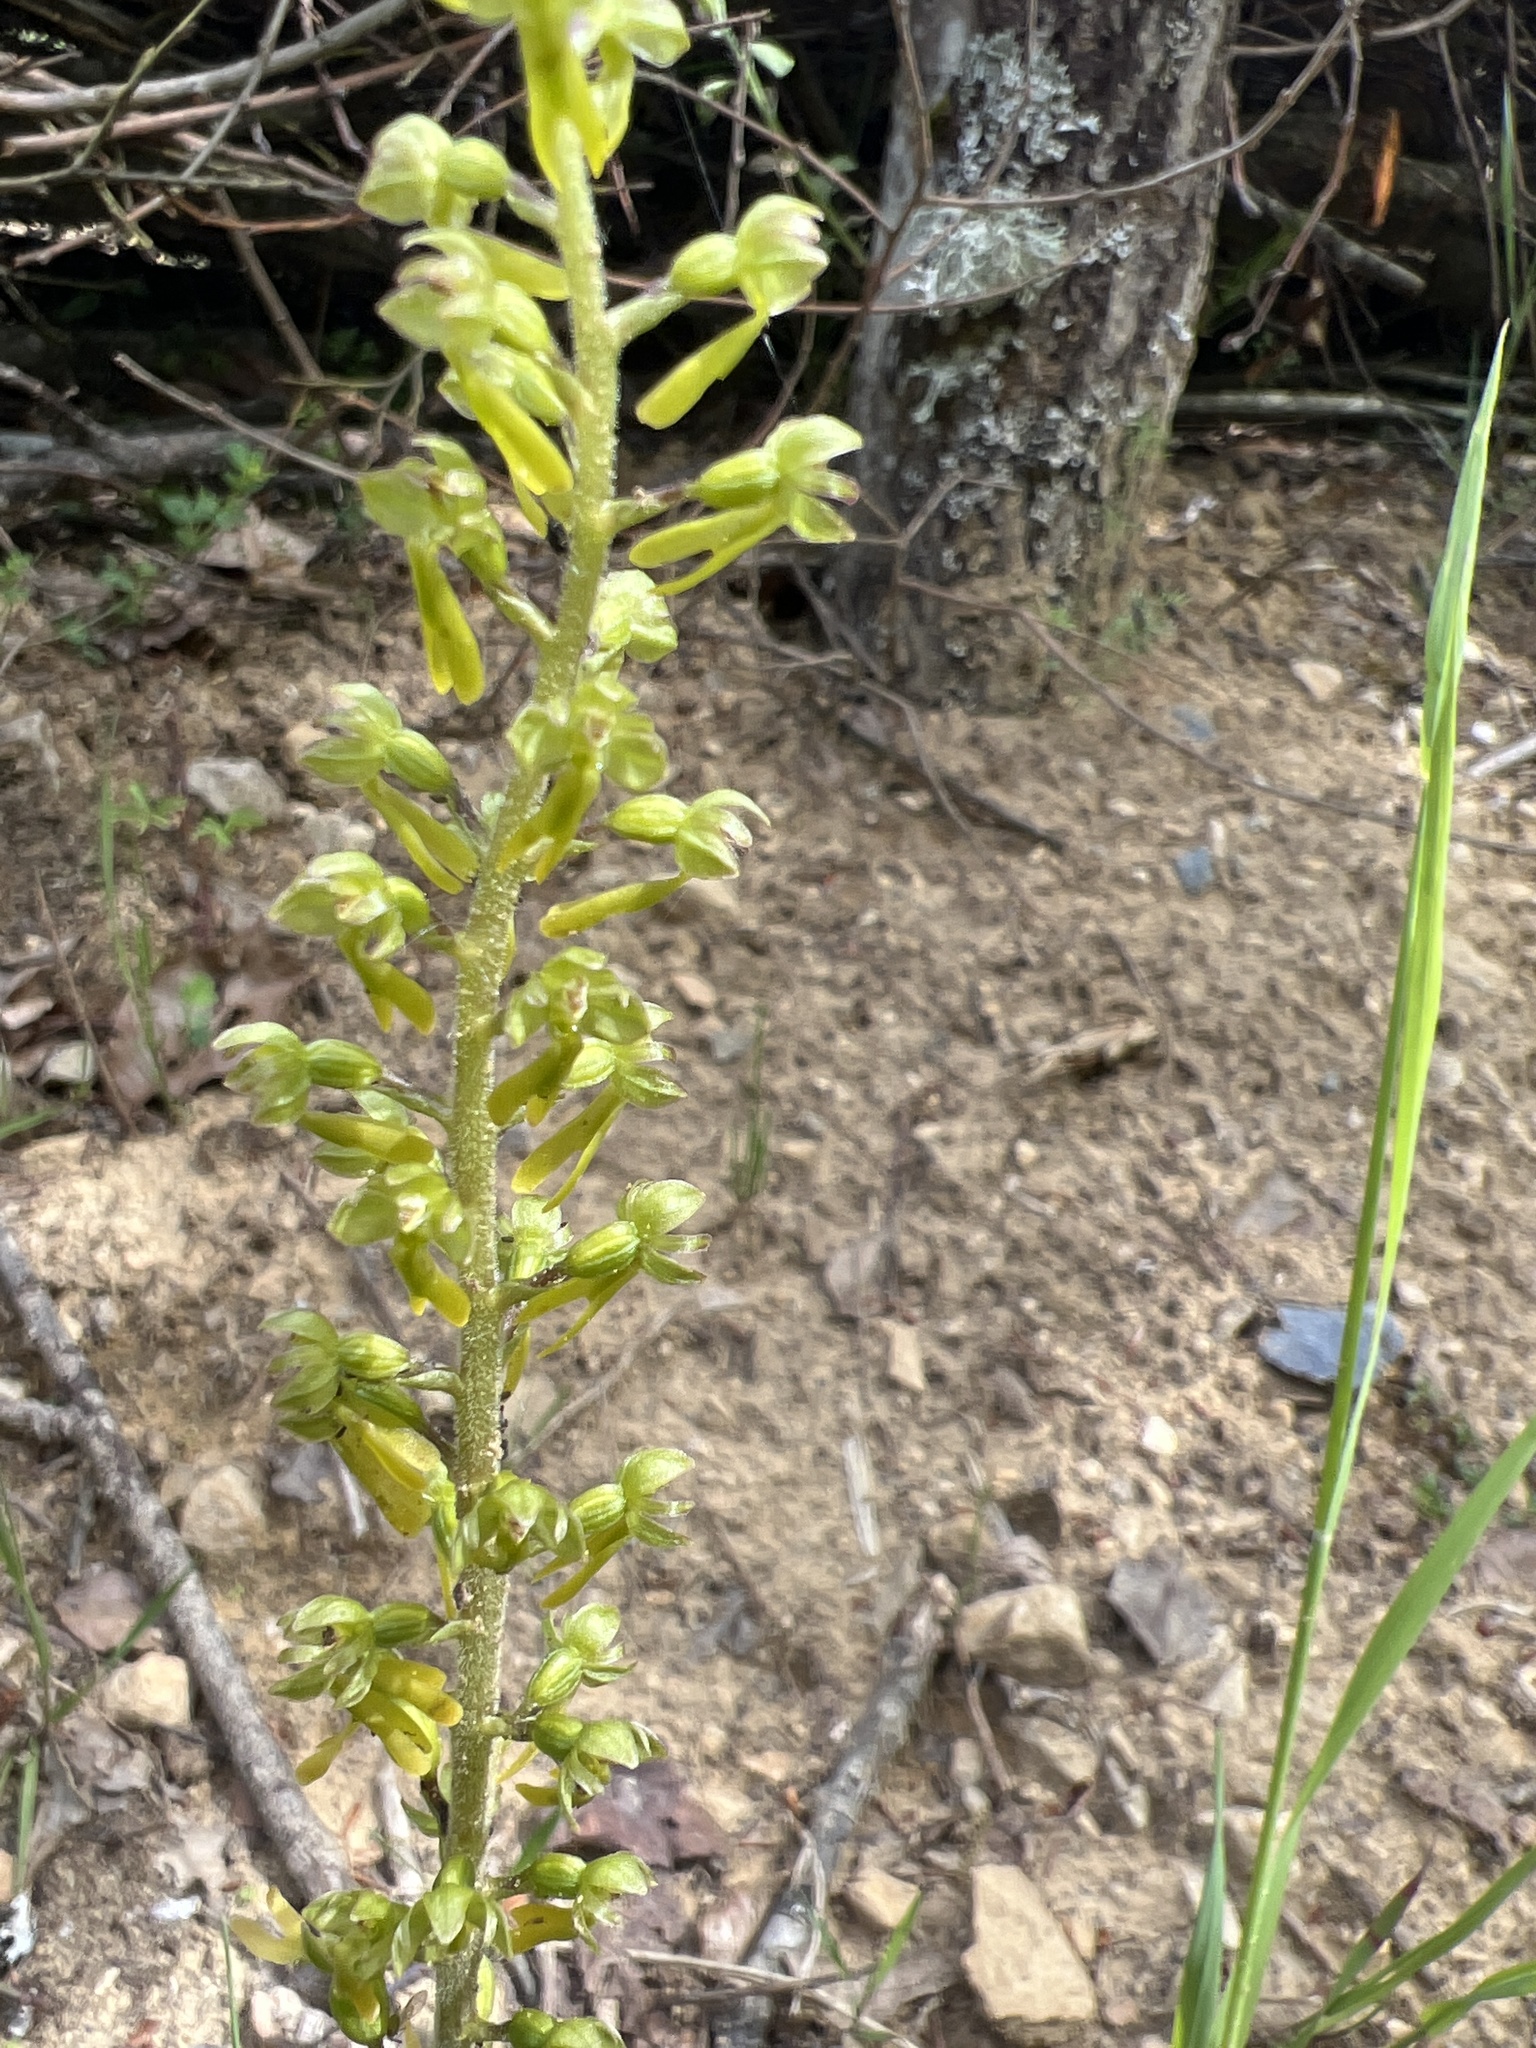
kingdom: Plantae
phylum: Tracheophyta
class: Liliopsida
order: Asparagales
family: Orchidaceae
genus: Neottia
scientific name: Neottia ovata
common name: Common twayblade
